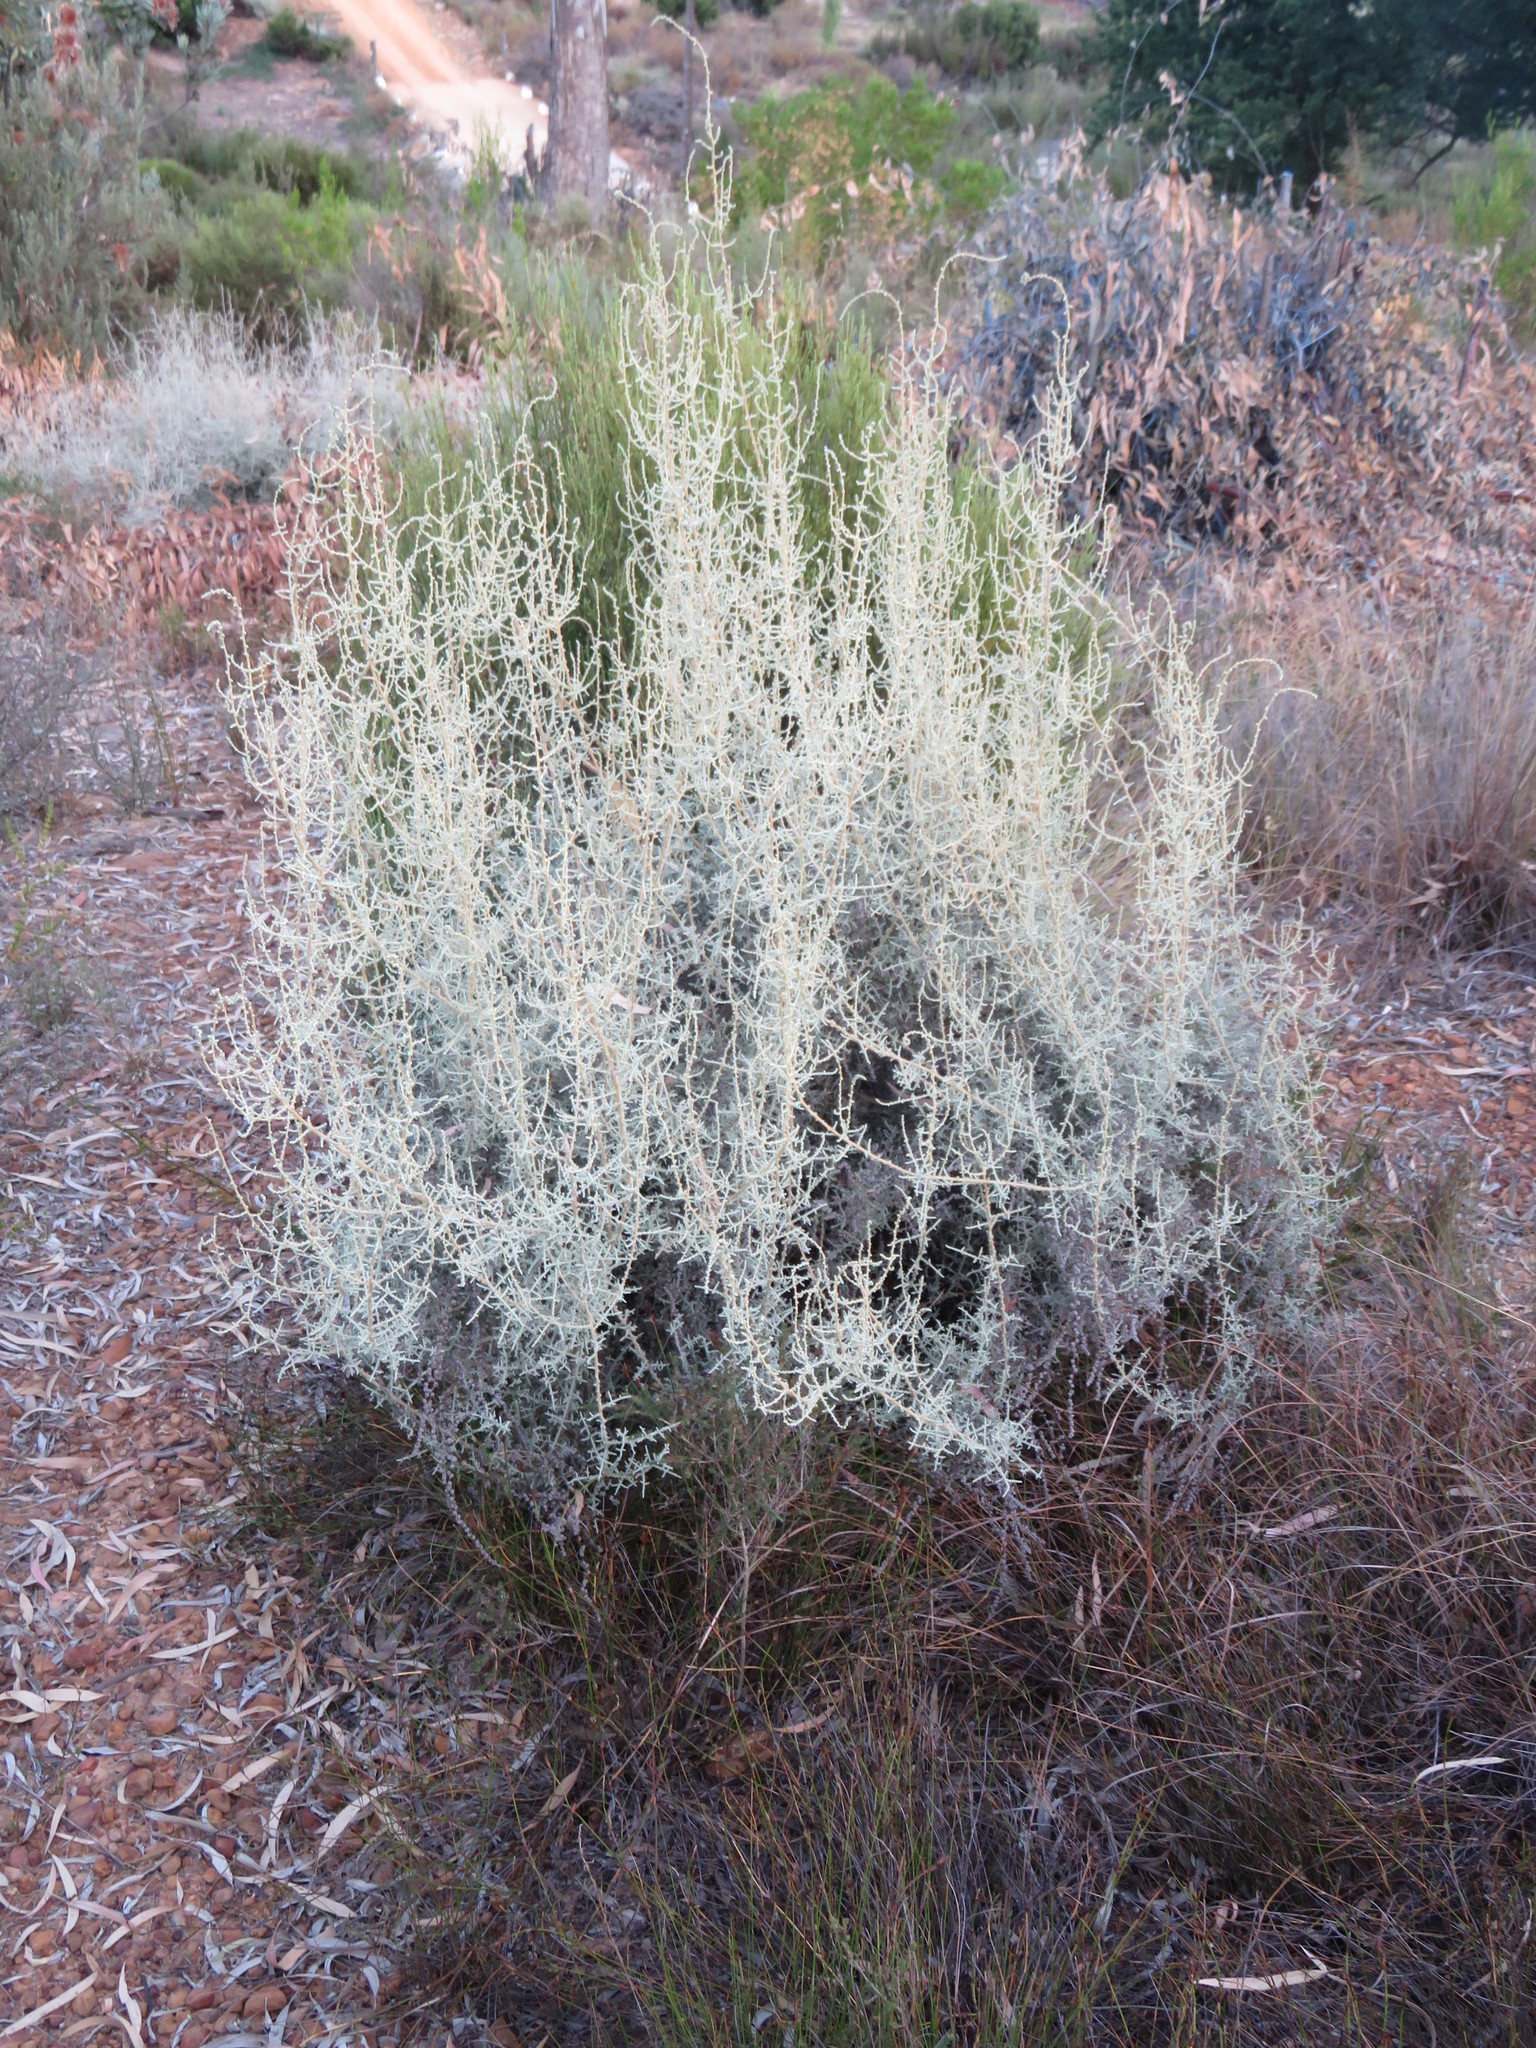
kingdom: Plantae
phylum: Tracheophyta
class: Magnoliopsida
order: Asterales
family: Asteraceae
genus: Seriphium
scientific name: Seriphium plumosum
